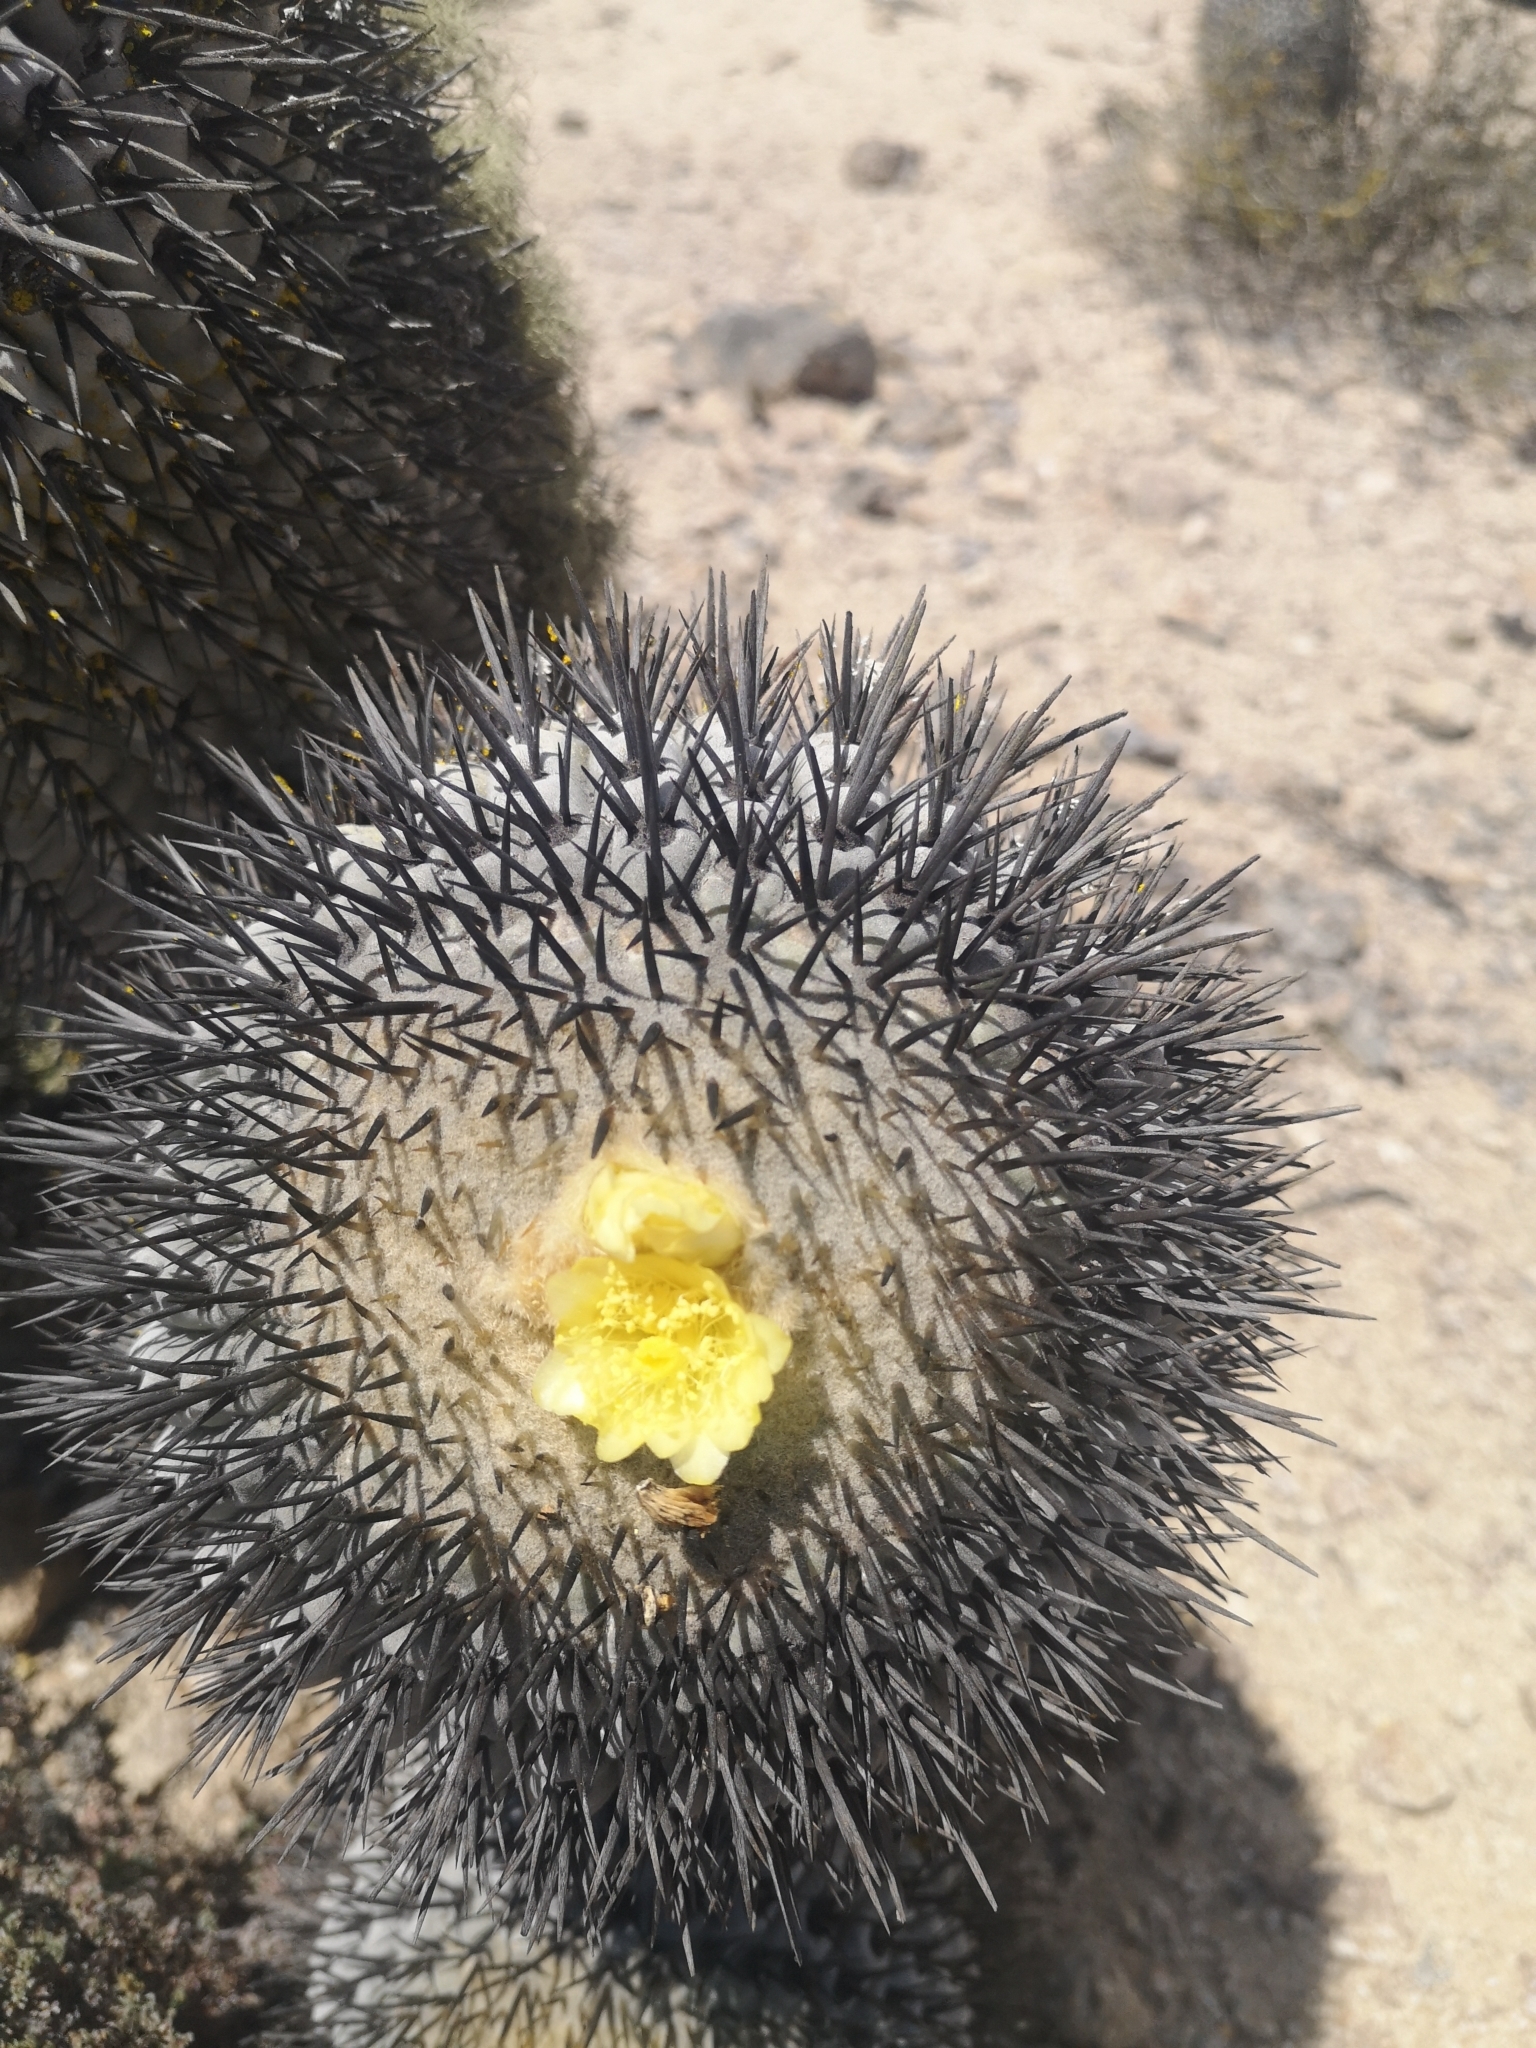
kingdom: Plantae
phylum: Tracheophyta
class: Magnoliopsida
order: Caryophyllales
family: Cactaceae
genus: Copiapoa
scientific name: Copiapoa cinerea
